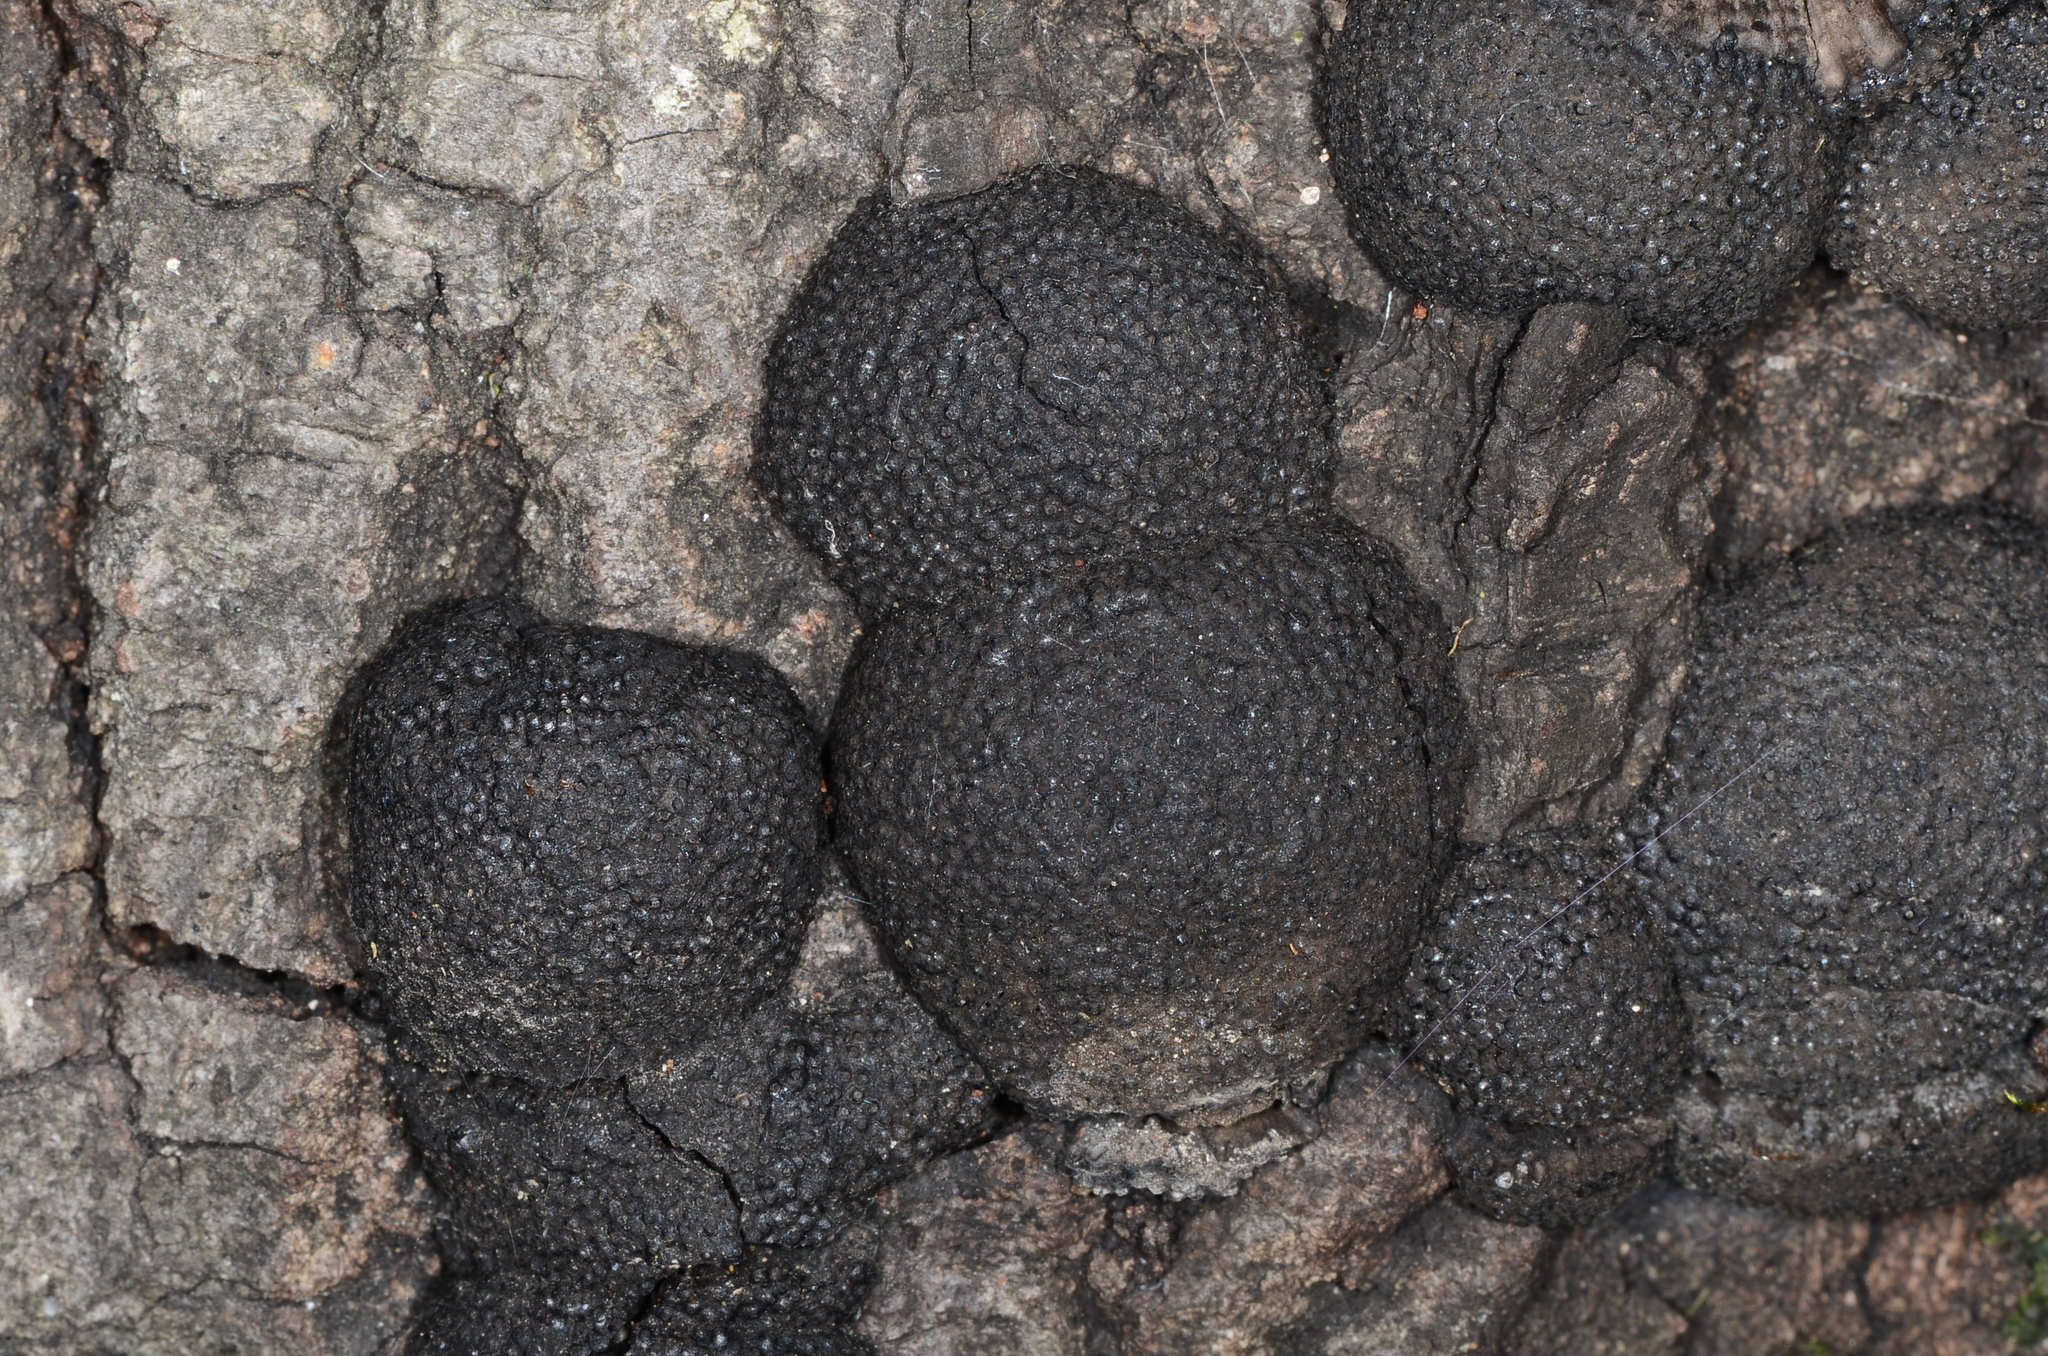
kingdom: Fungi
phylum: Ascomycota
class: Sordariomycetes
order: Xylariales
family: Hypoxylaceae
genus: Annulohypoxylon
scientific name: Annulohypoxylon thouarsianum
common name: Cramp balls
